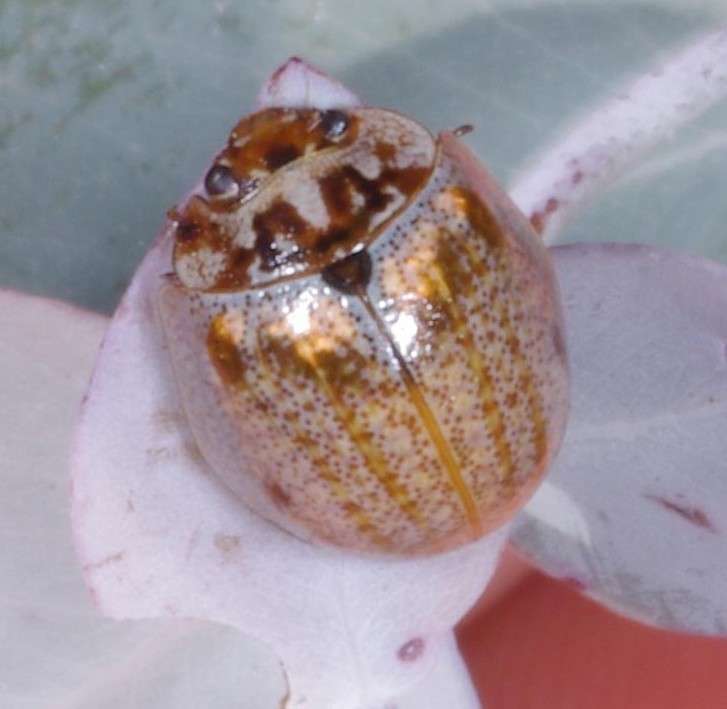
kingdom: Animalia
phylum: Arthropoda
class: Insecta
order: Coleoptera
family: Chrysomelidae
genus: Paropsisterna
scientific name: Paropsisterna m-fuscum
